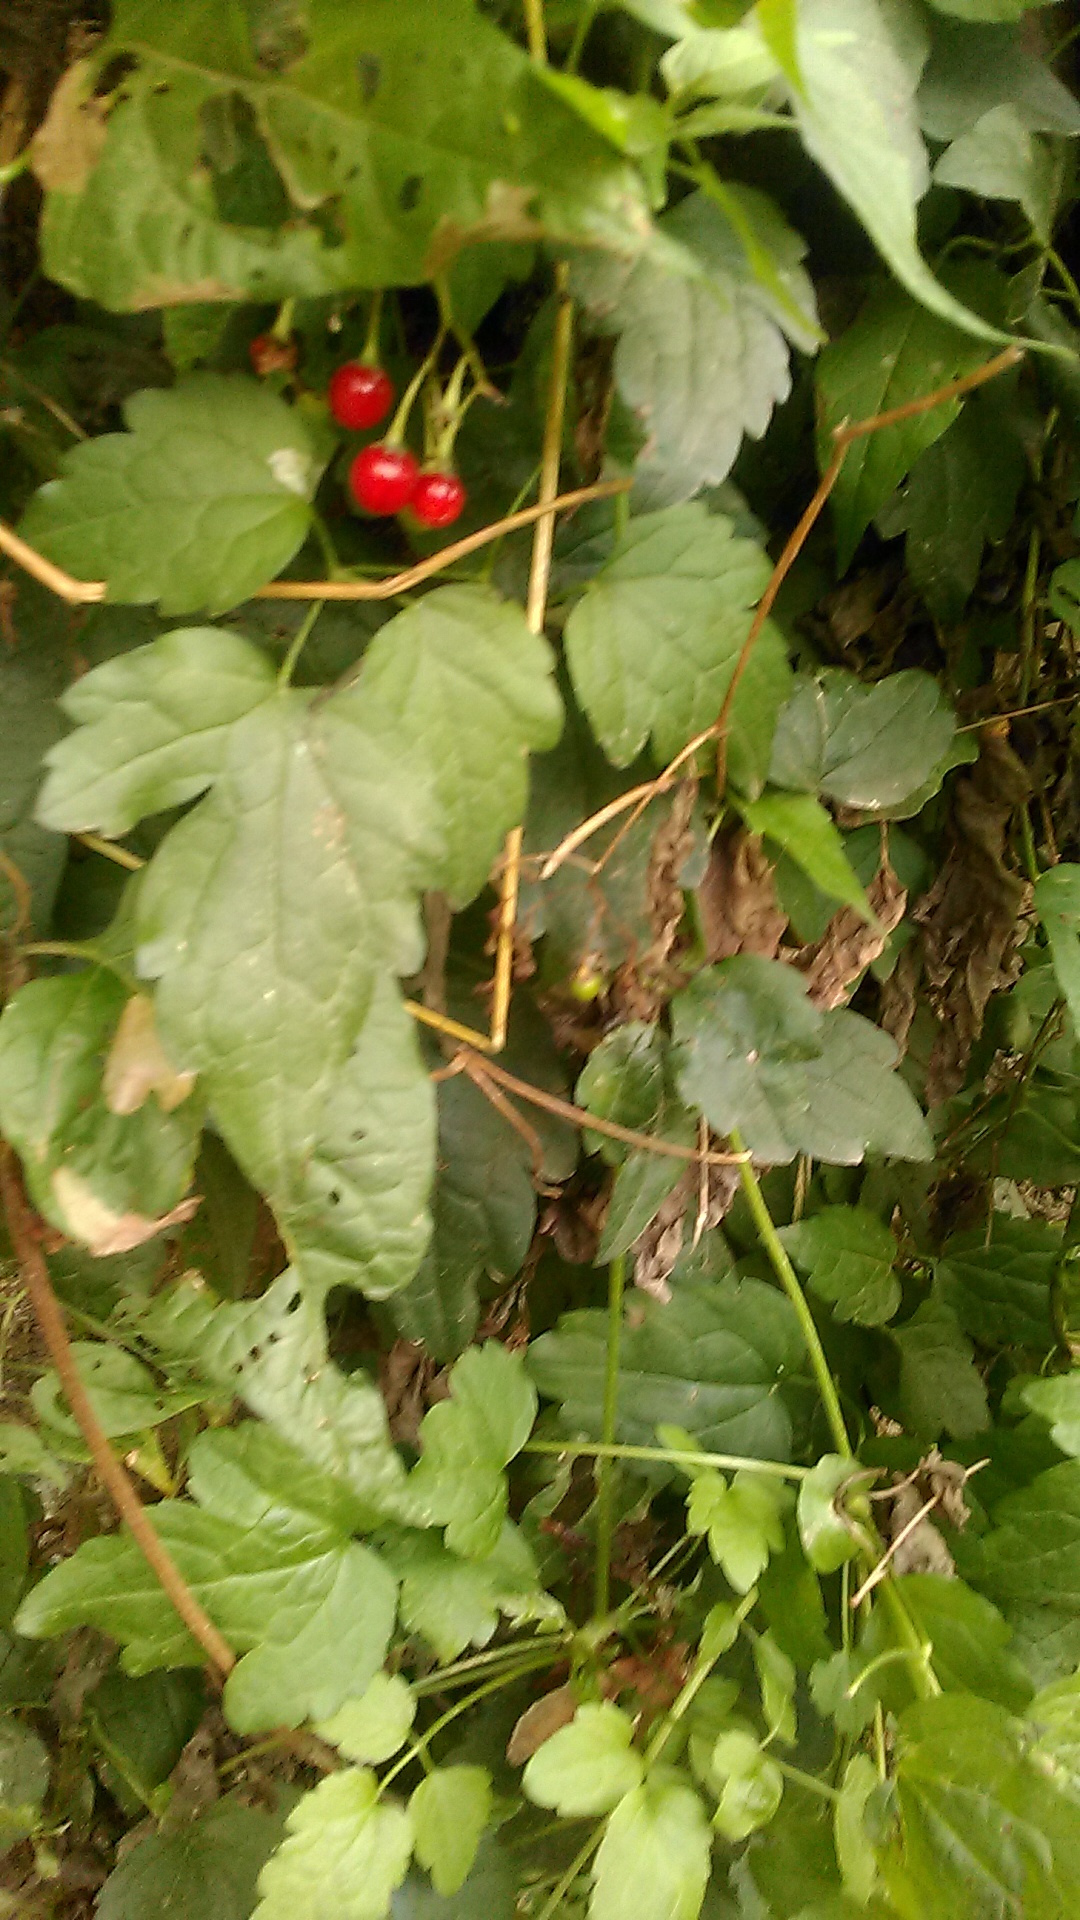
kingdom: Plantae
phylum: Tracheophyta
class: Magnoliopsida
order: Solanales
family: Solanaceae
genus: Solanum
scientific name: Solanum dulcamara
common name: Climbing nightshade
